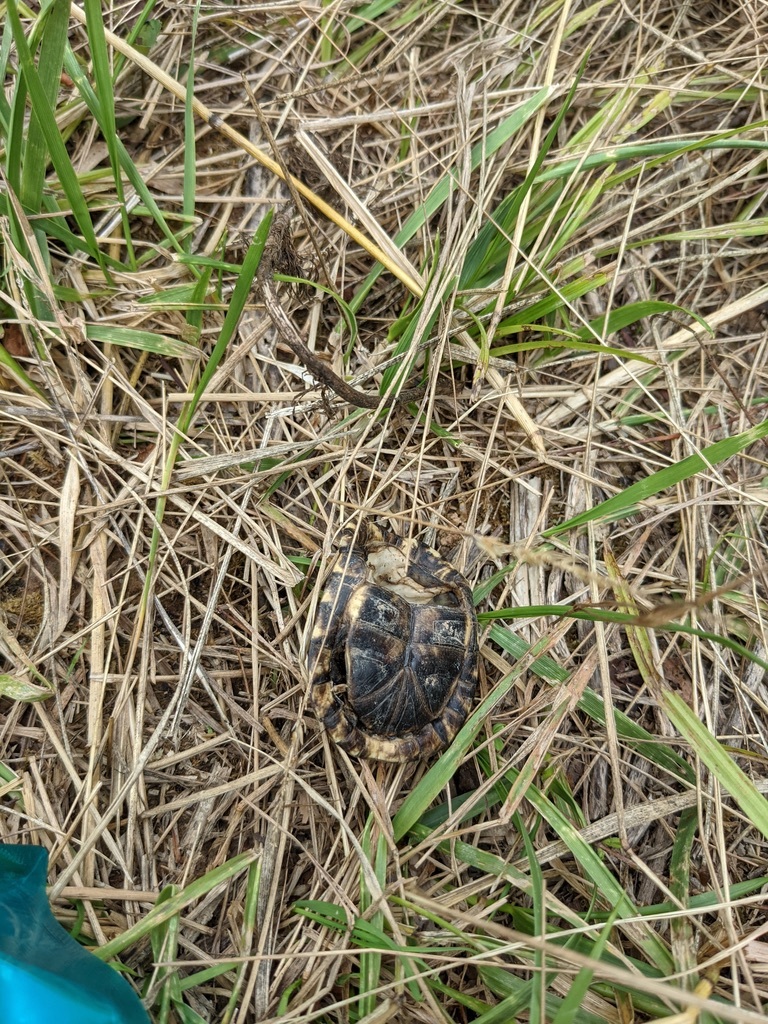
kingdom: Animalia
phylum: Chordata
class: Testudines
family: Emydidae
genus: Terrapene
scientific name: Terrapene carolina
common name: Common box turtle
